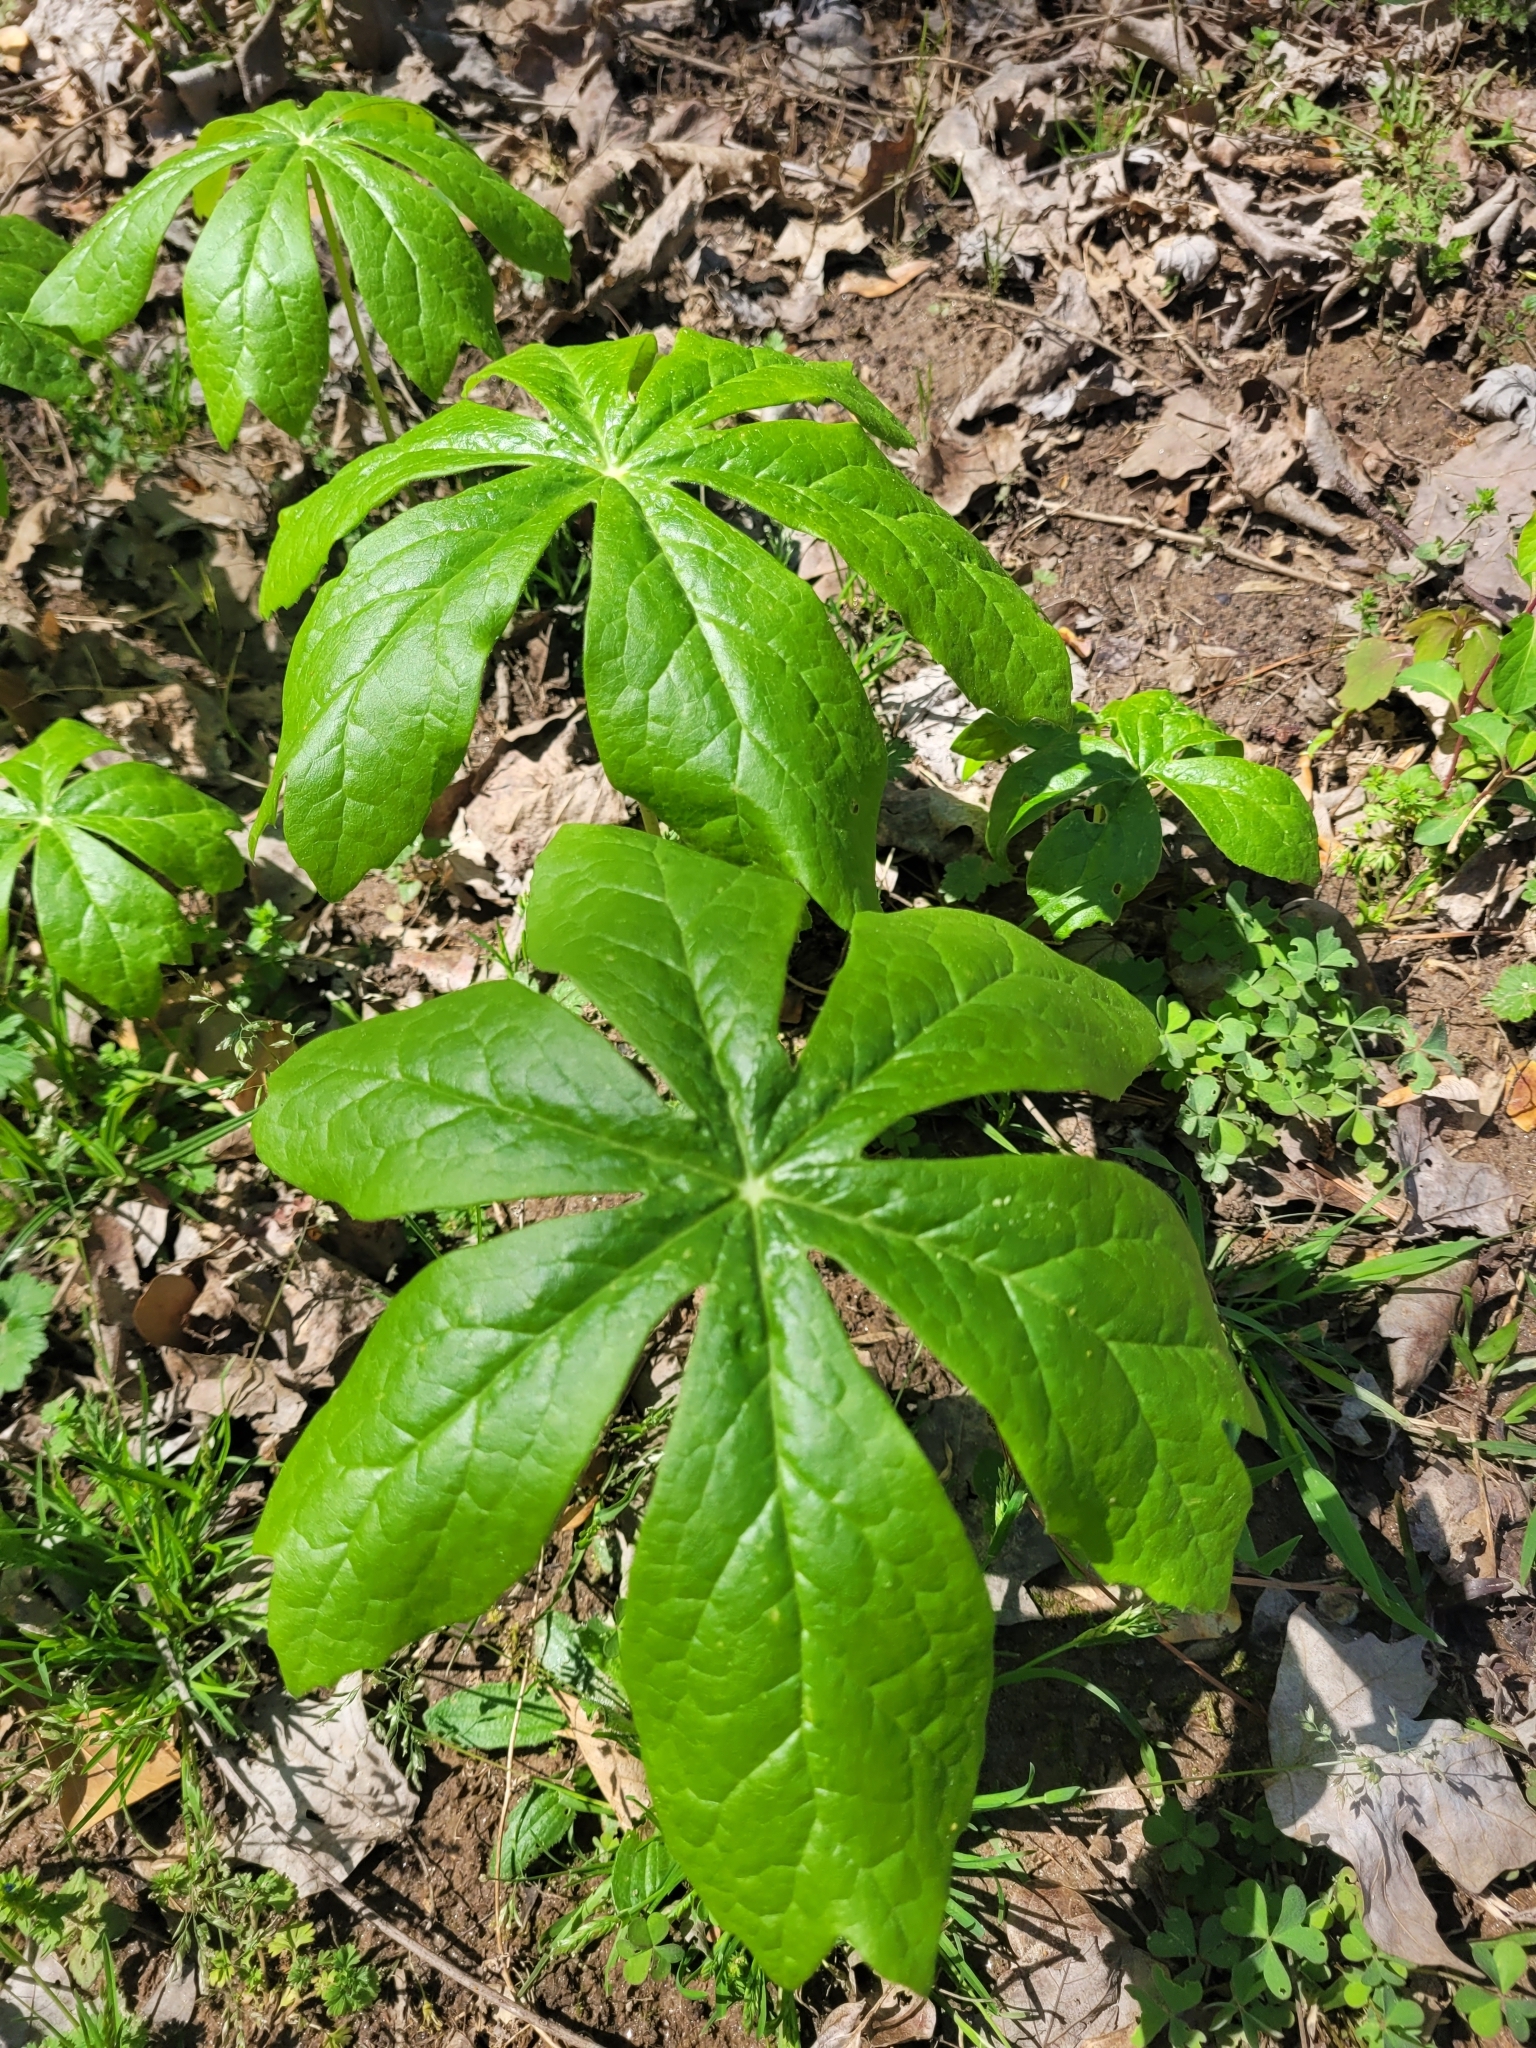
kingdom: Plantae
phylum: Tracheophyta
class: Magnoliopsida
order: Ranunculales
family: Berberidaceae
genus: Podophyllum
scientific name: Podophyllum peltatum
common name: Wild mandrake
